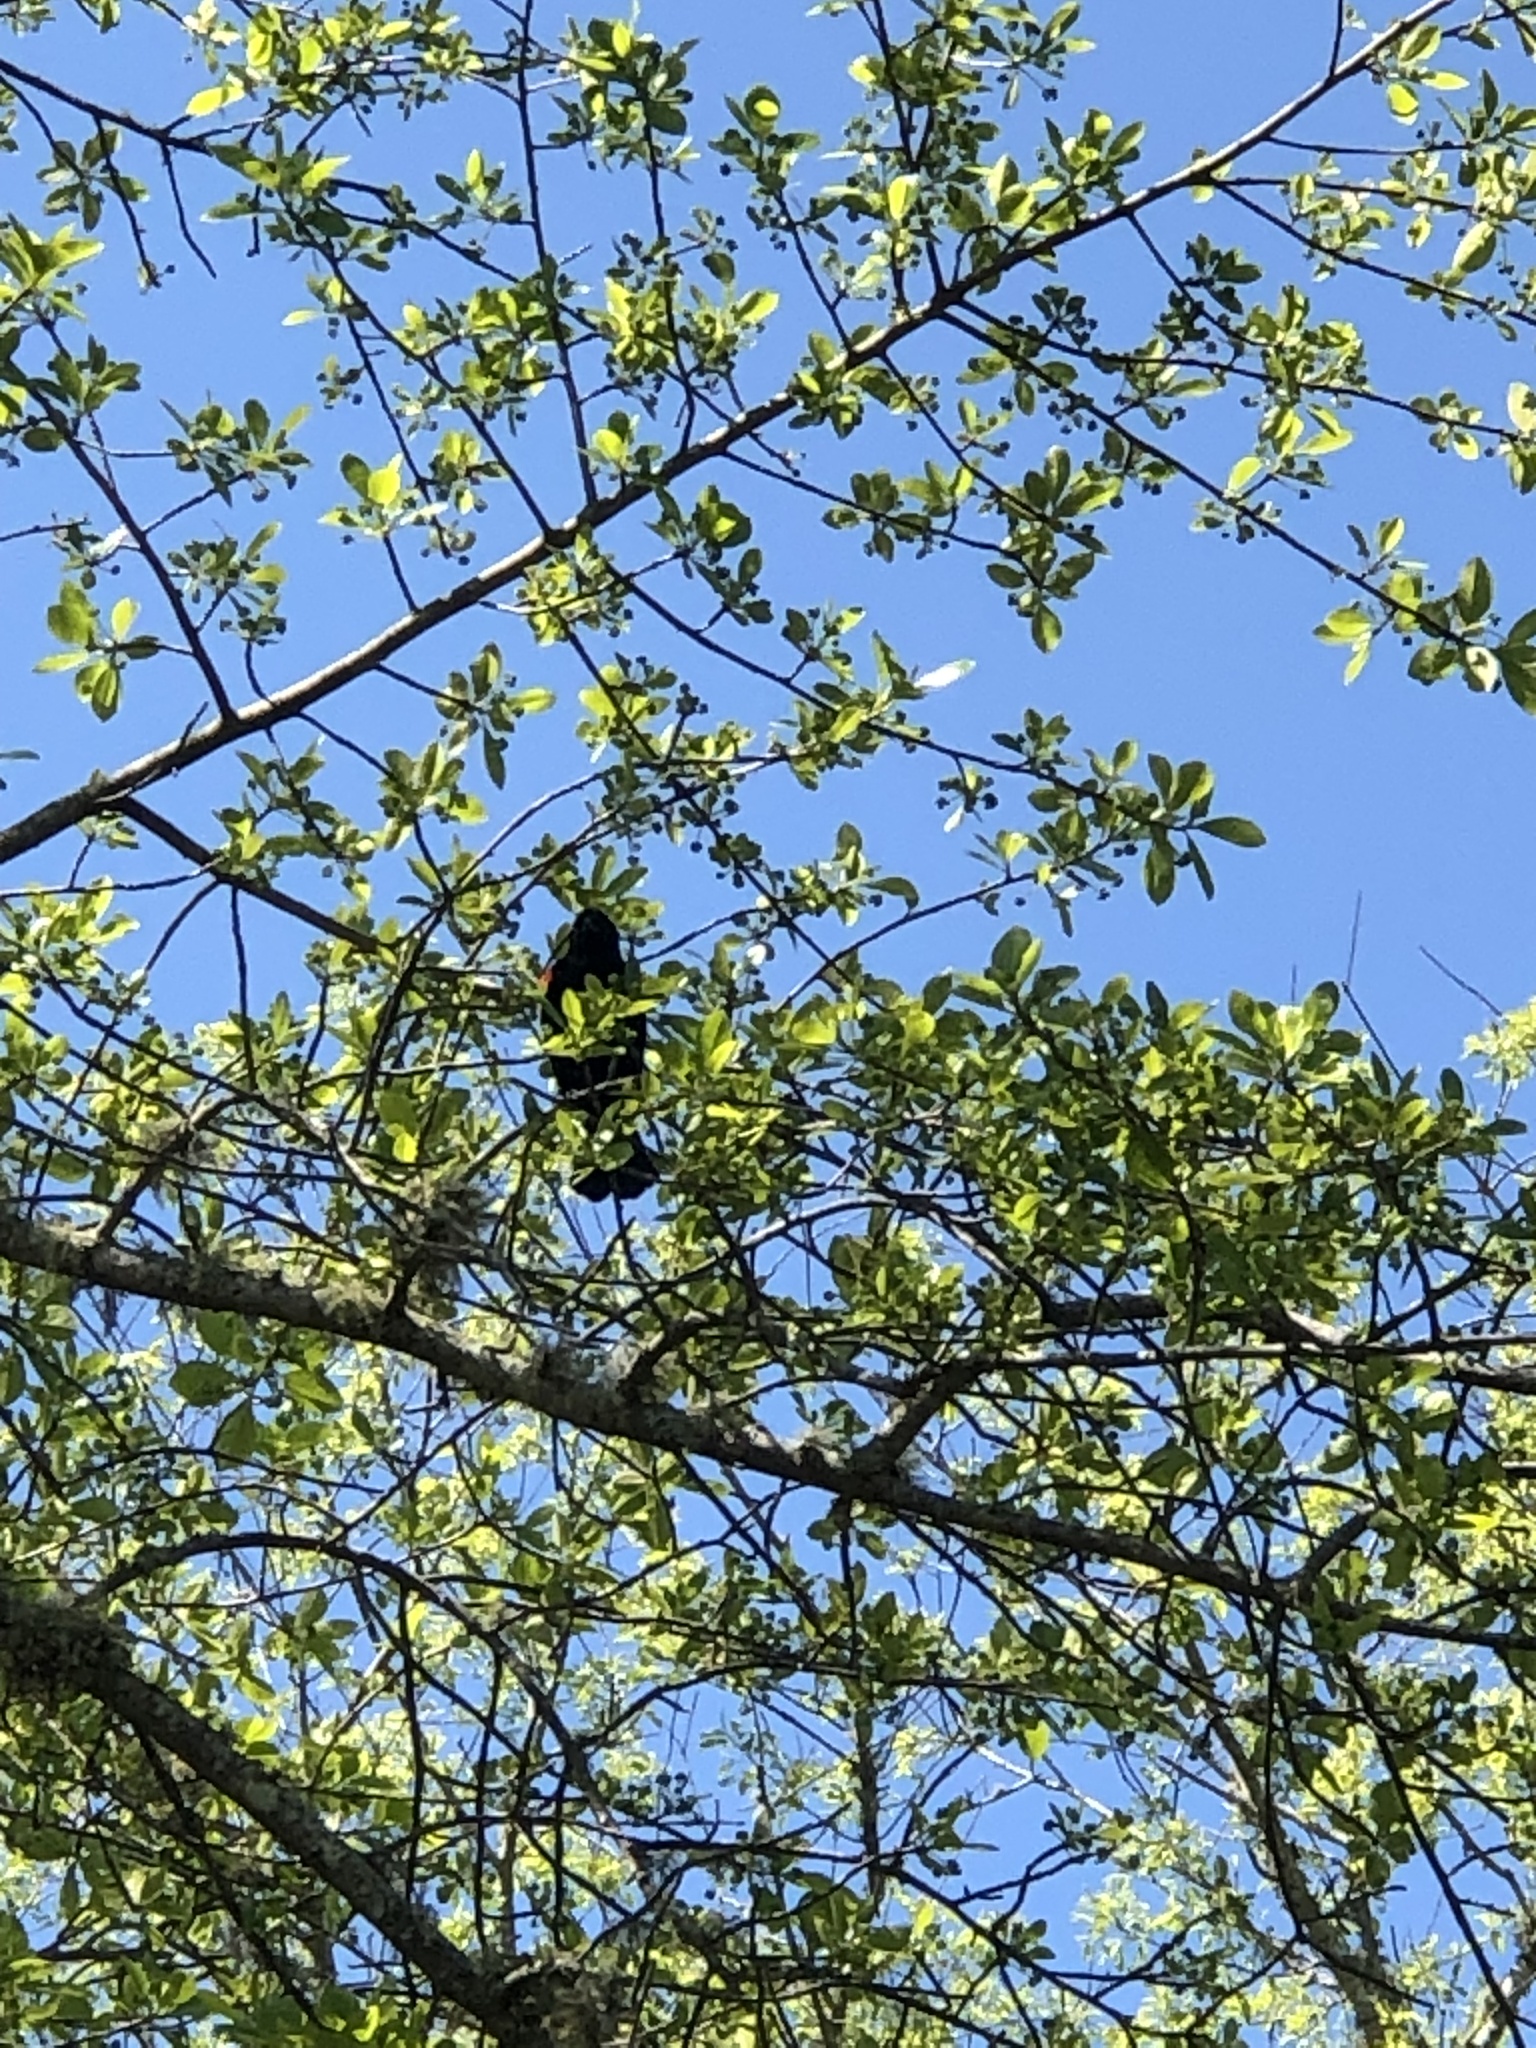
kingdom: Animalia
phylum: Chordata
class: Aves
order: Passeriformes
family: Icteridae
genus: Agelaius
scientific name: Agelaius phoeniceus
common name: Red-winged blackbird
